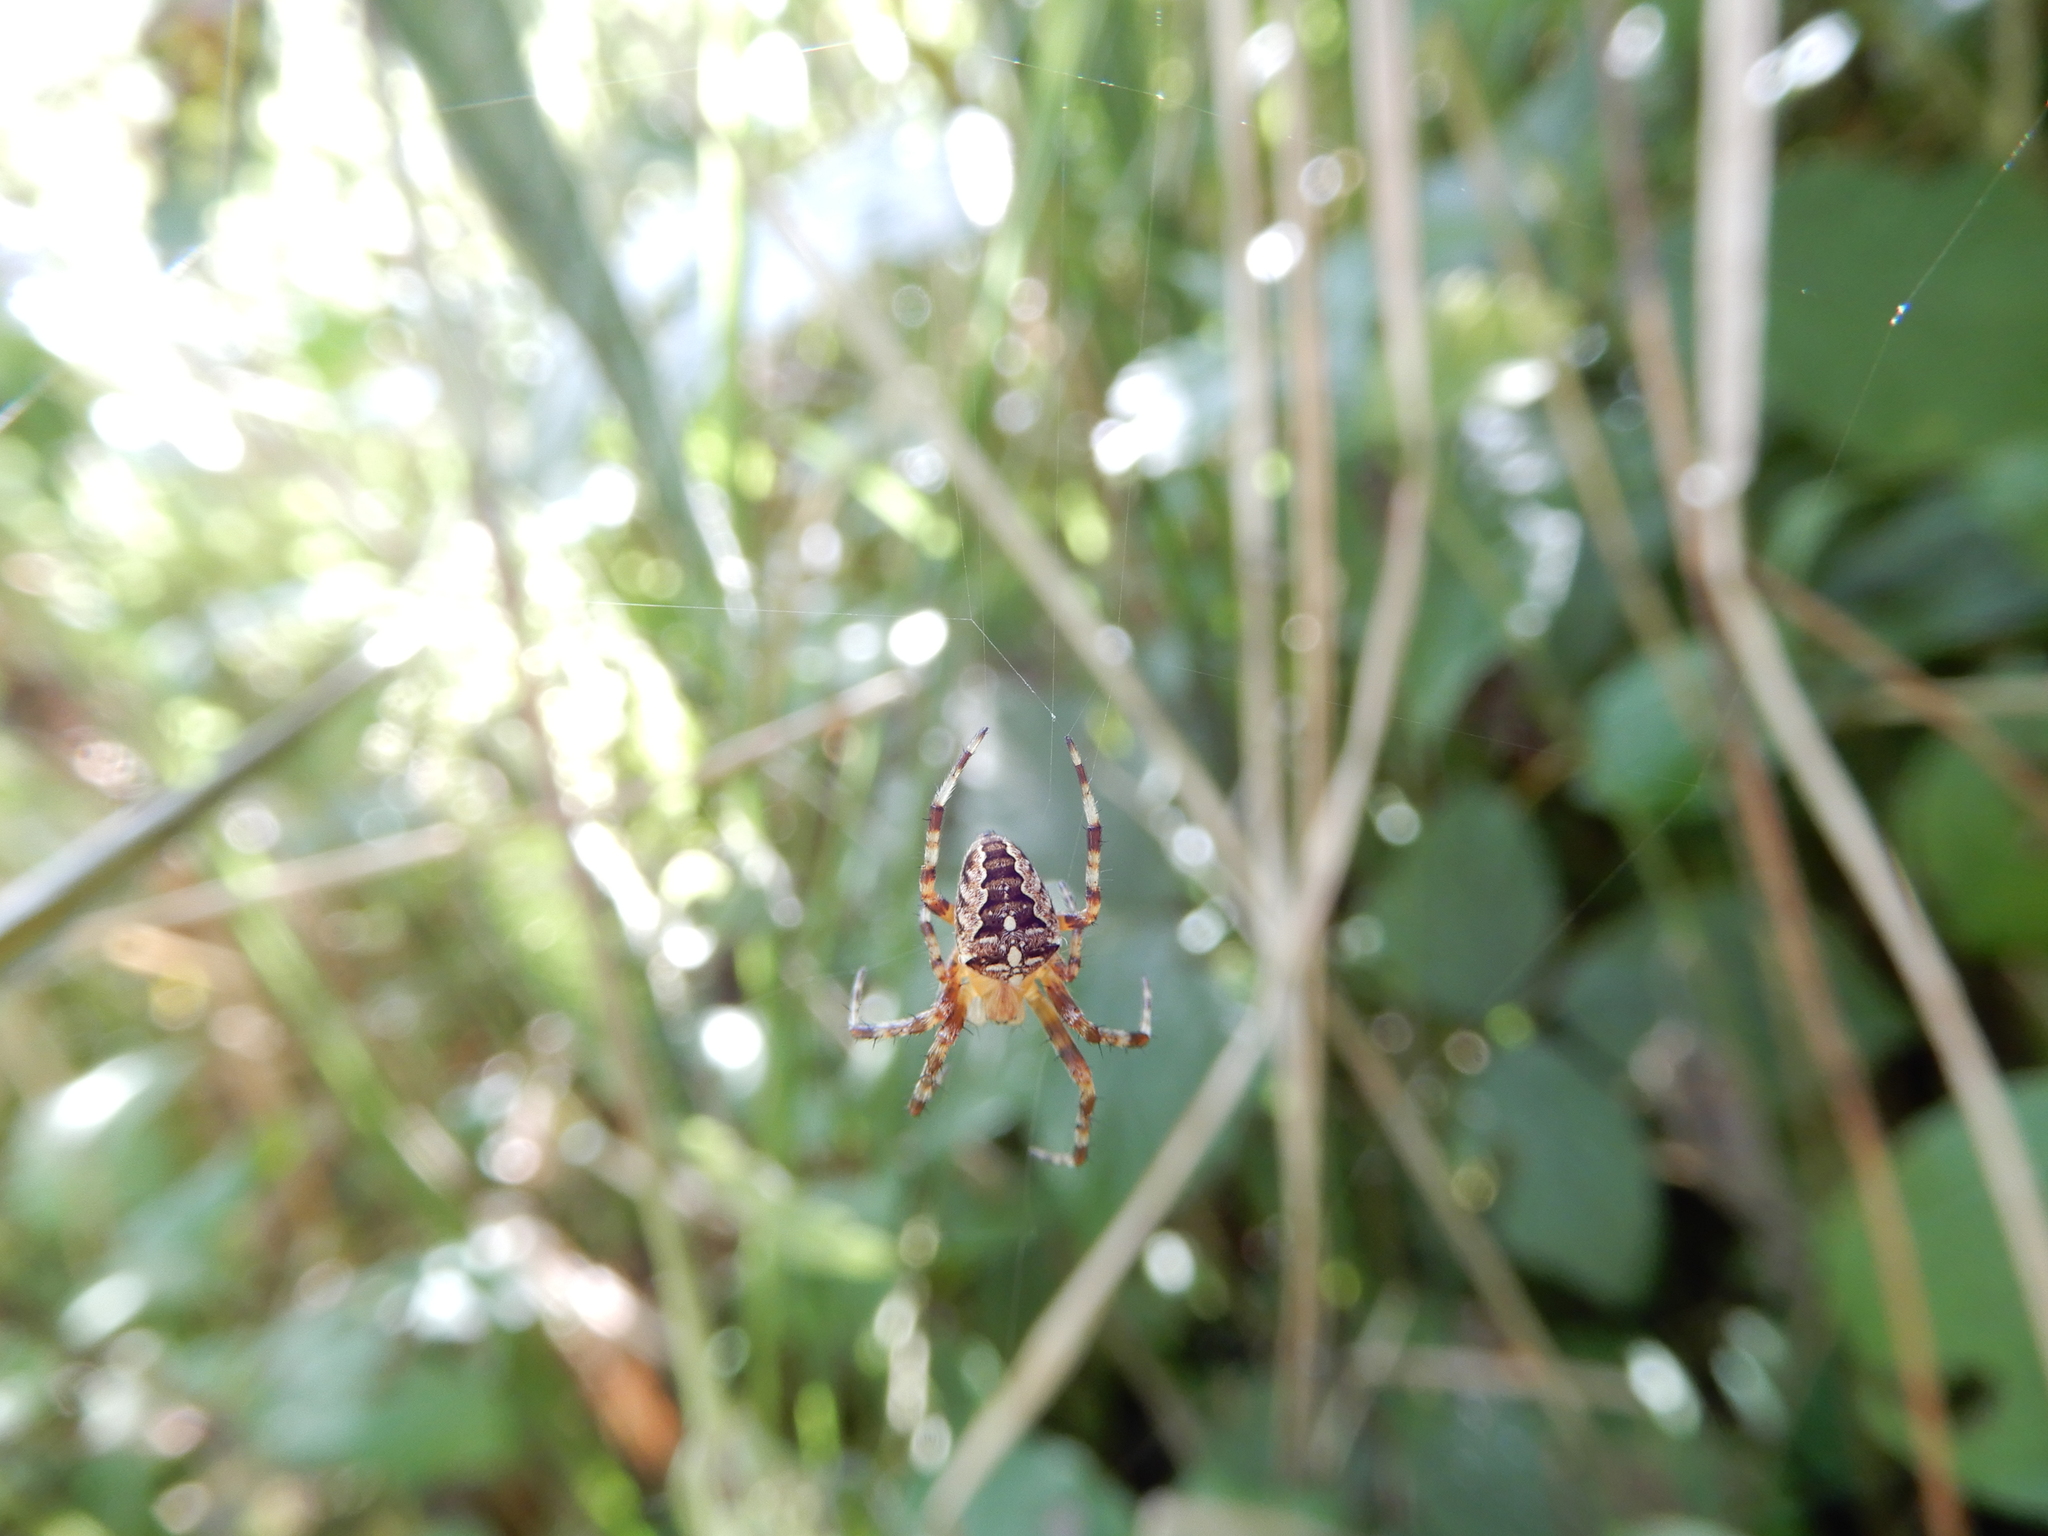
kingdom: Animalia
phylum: Arthropoda
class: Arachnida
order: Araneae
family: Araneidae
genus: Araneus
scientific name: Araneus diadematus
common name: Cross orbweaver
